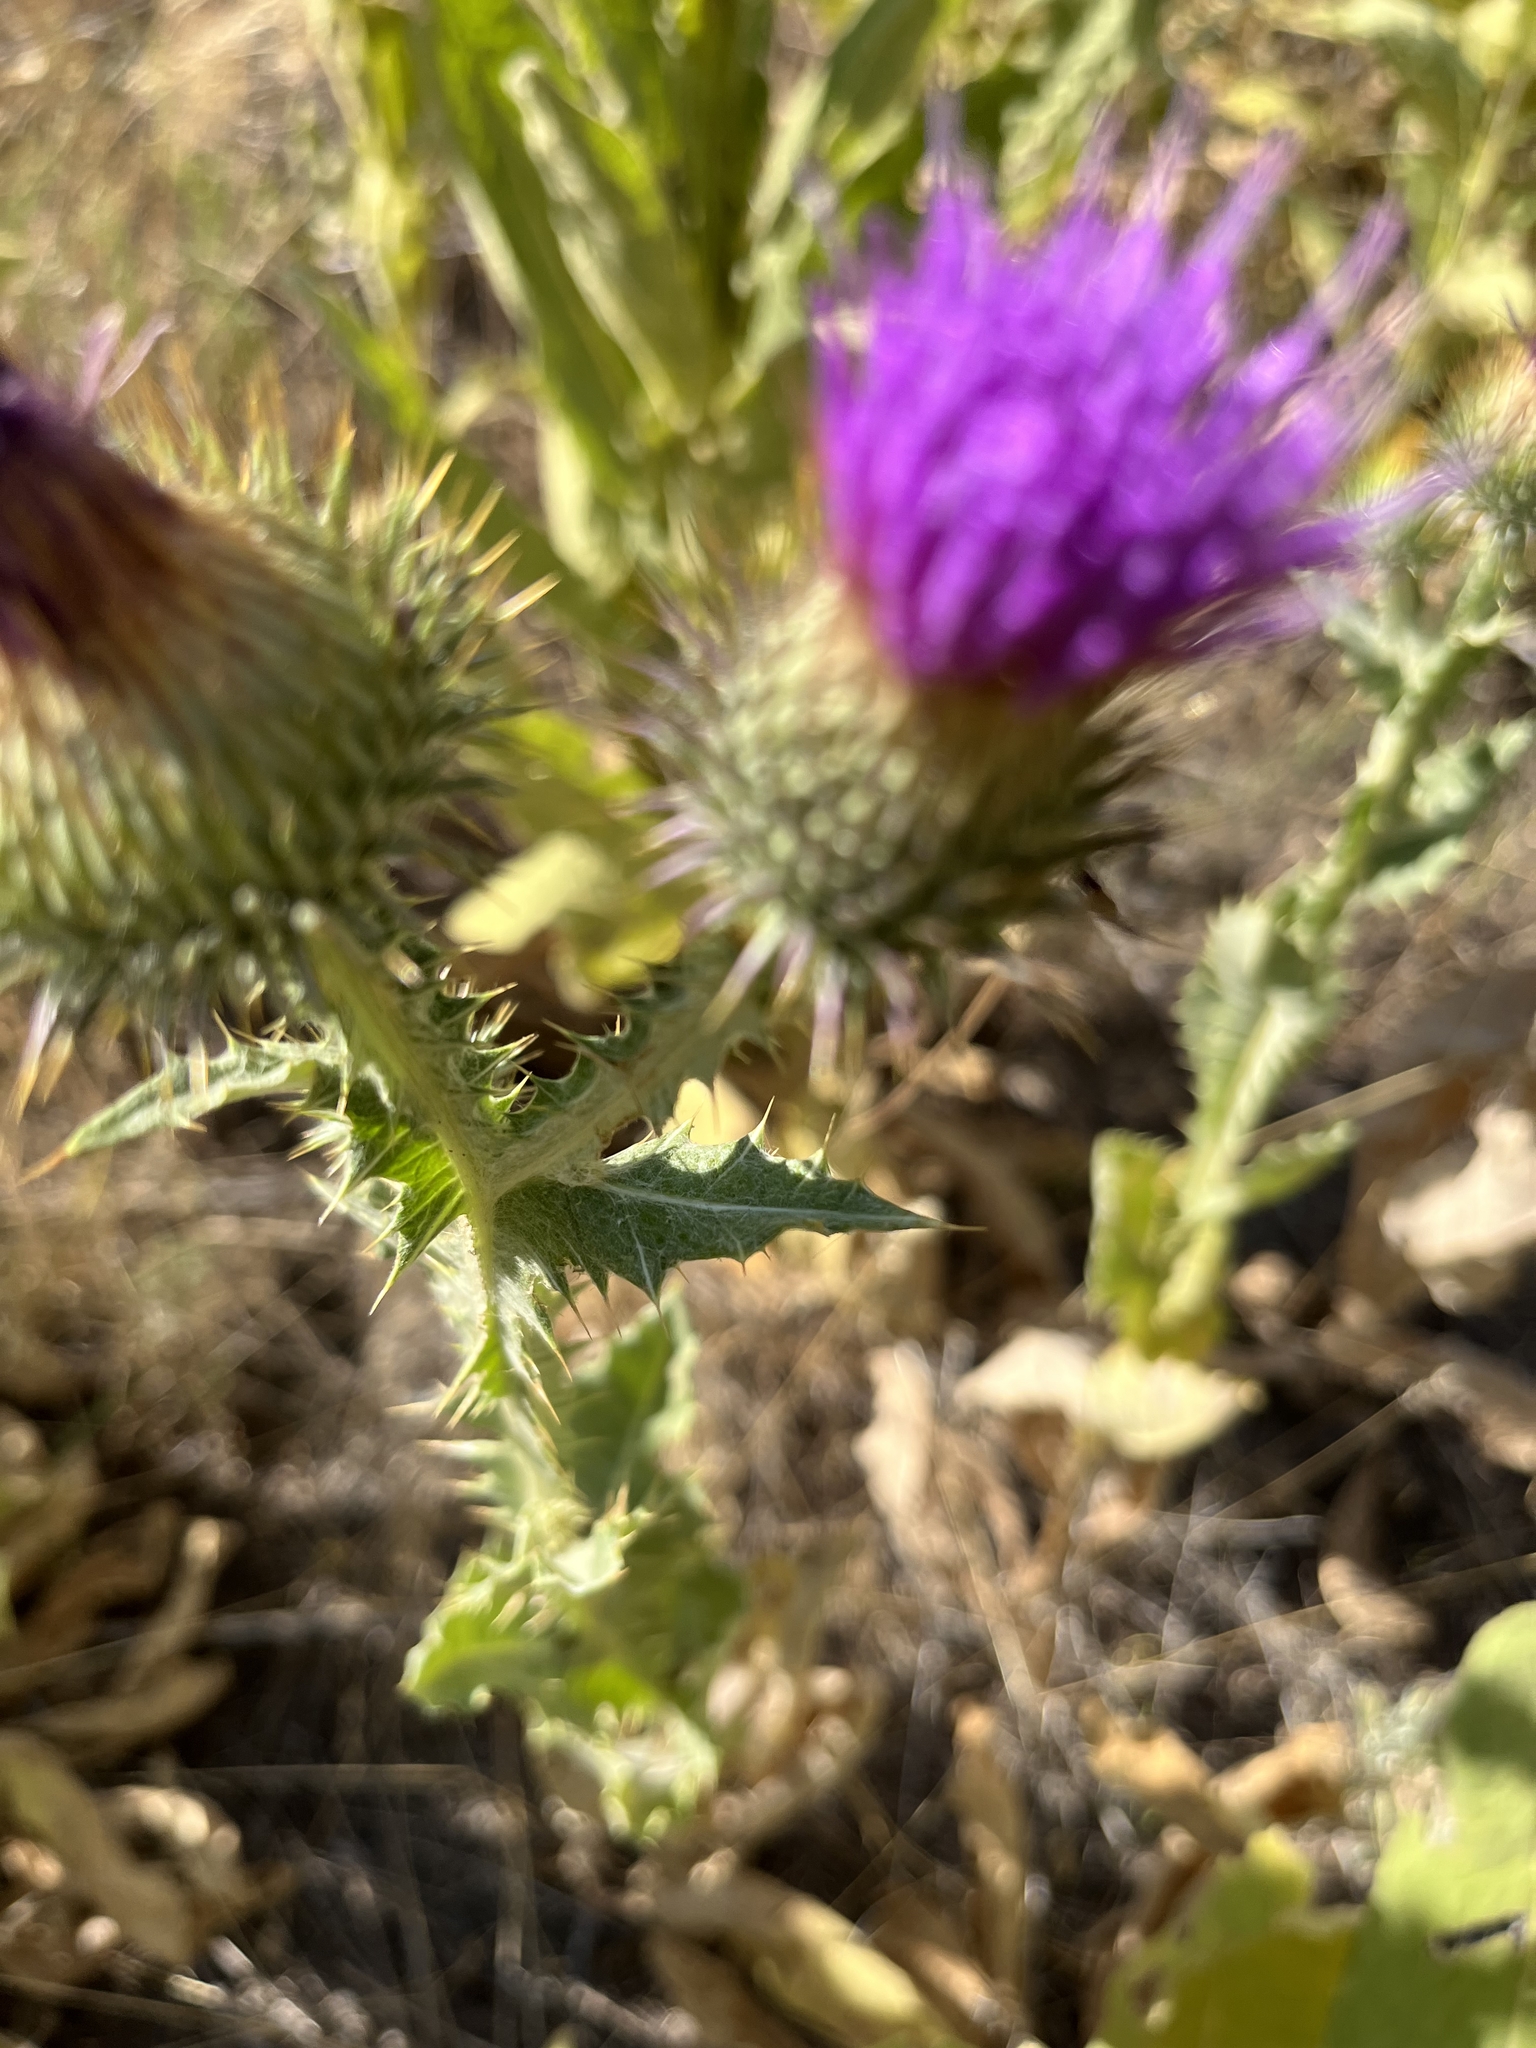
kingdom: Plantae
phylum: Tracheophyta
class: Magnoliopsida
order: Asterales
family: Asteraceae
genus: Onopordum
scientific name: Onopordum acanthium
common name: Scotch thistle
